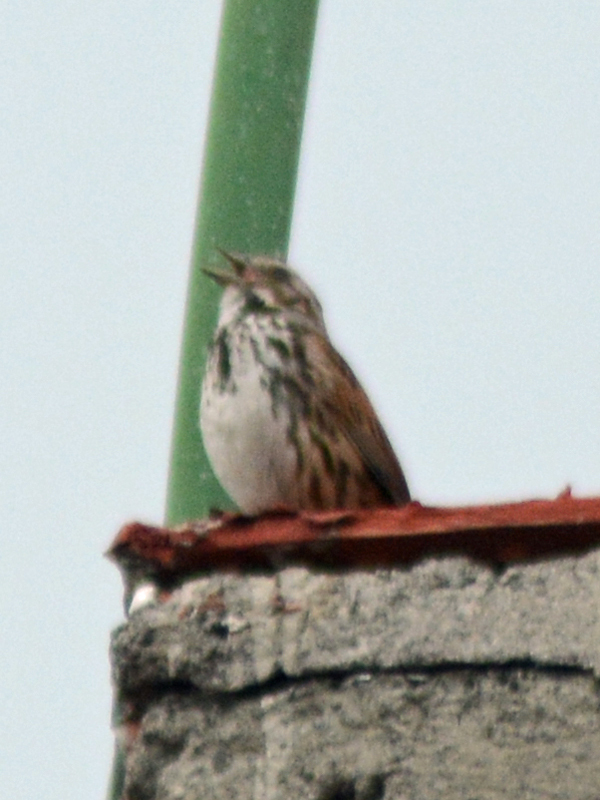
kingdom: Animalia
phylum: Chordata
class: Aves
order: Passeriformes
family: Passerellidae
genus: Melospiza
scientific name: Melospiza melodia
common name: Song sparrow
